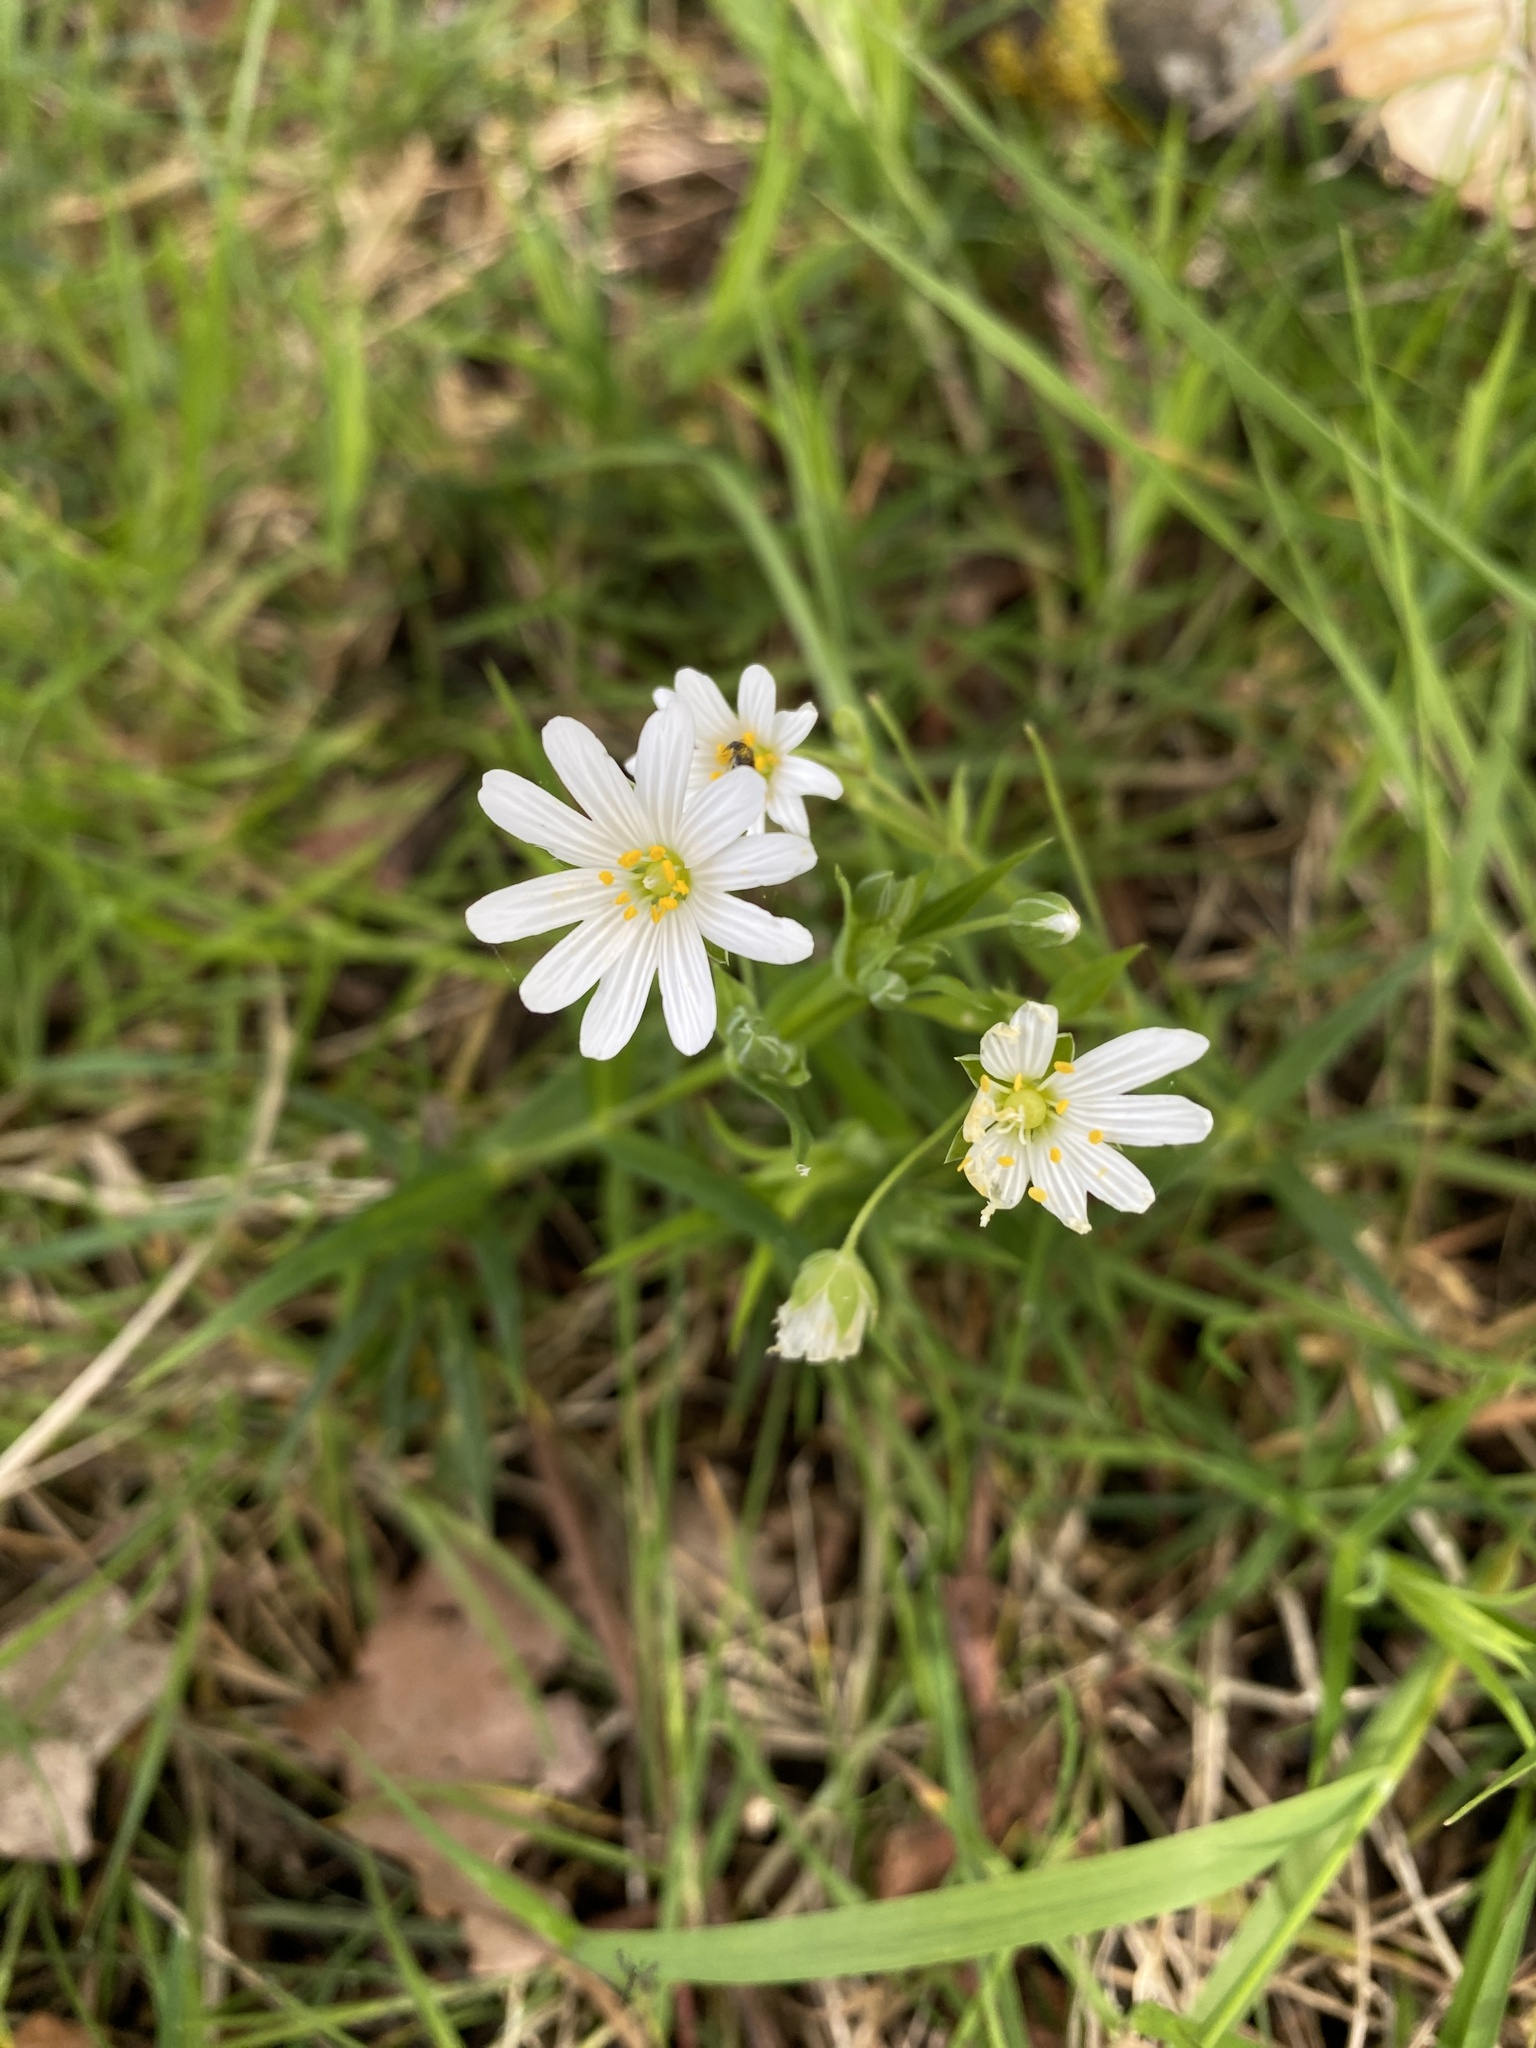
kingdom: Plantae
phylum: Tracheophyta
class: Magnoliopsida
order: Caryophyllales
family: Caryophyllaceae
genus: Rabelera
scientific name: Rabelera holostea
